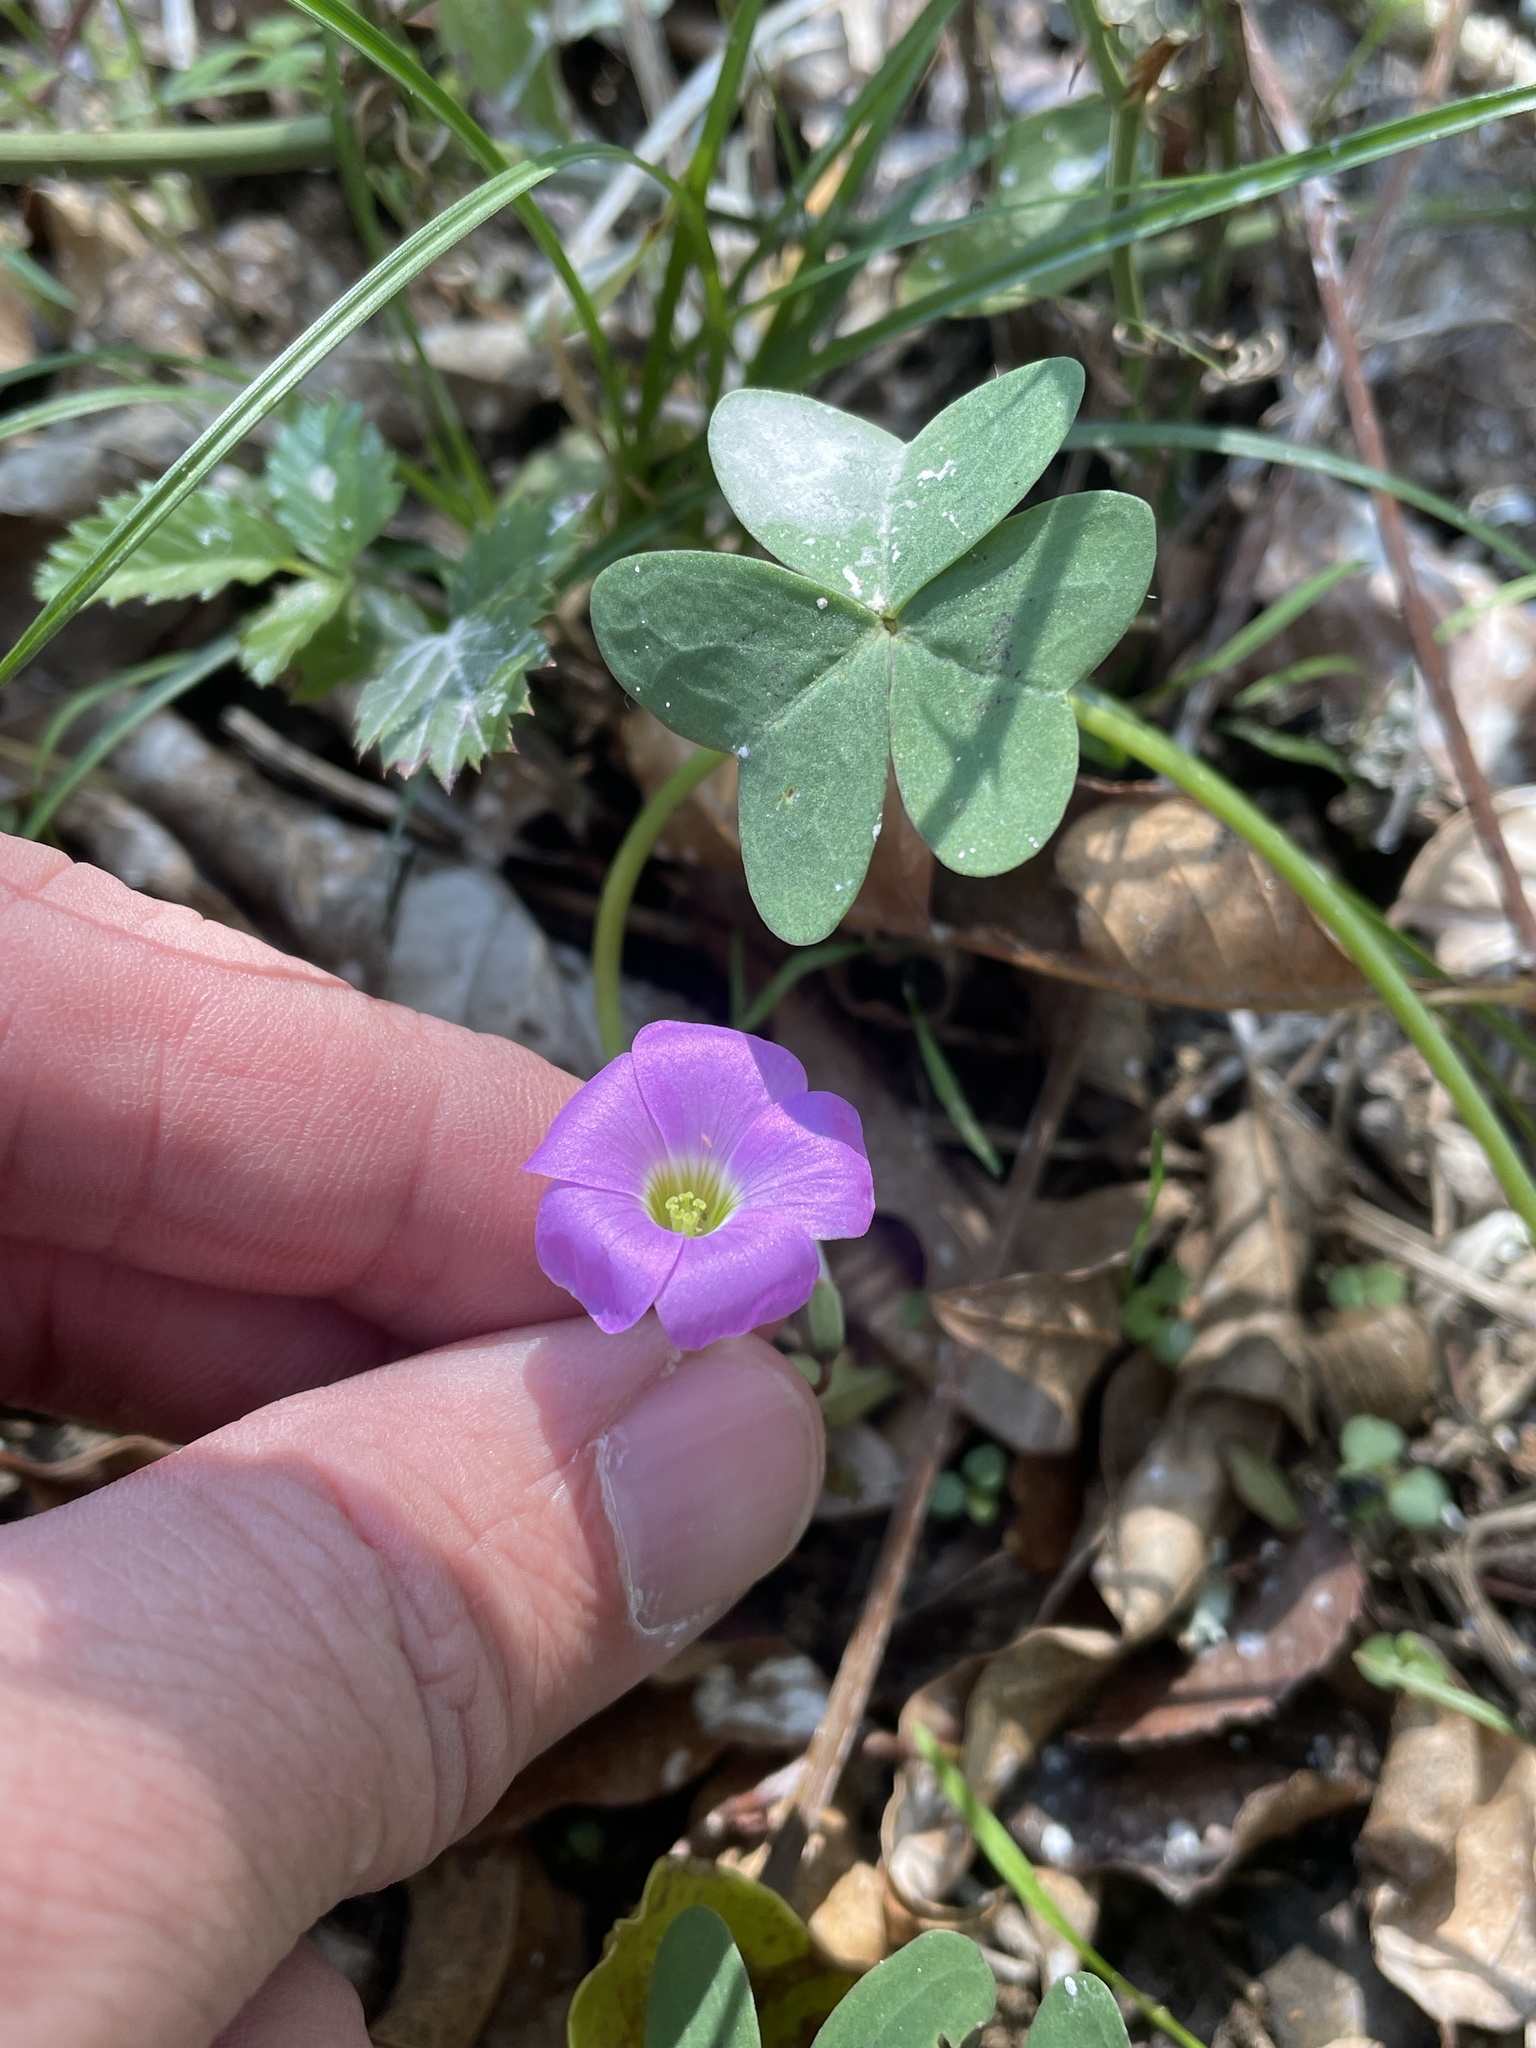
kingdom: Plantae
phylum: Tracheophyta
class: Magnoliopsida
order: Oxalidales
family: Oxalidaceae
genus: Oxalis
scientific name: Oxalis drummondii
